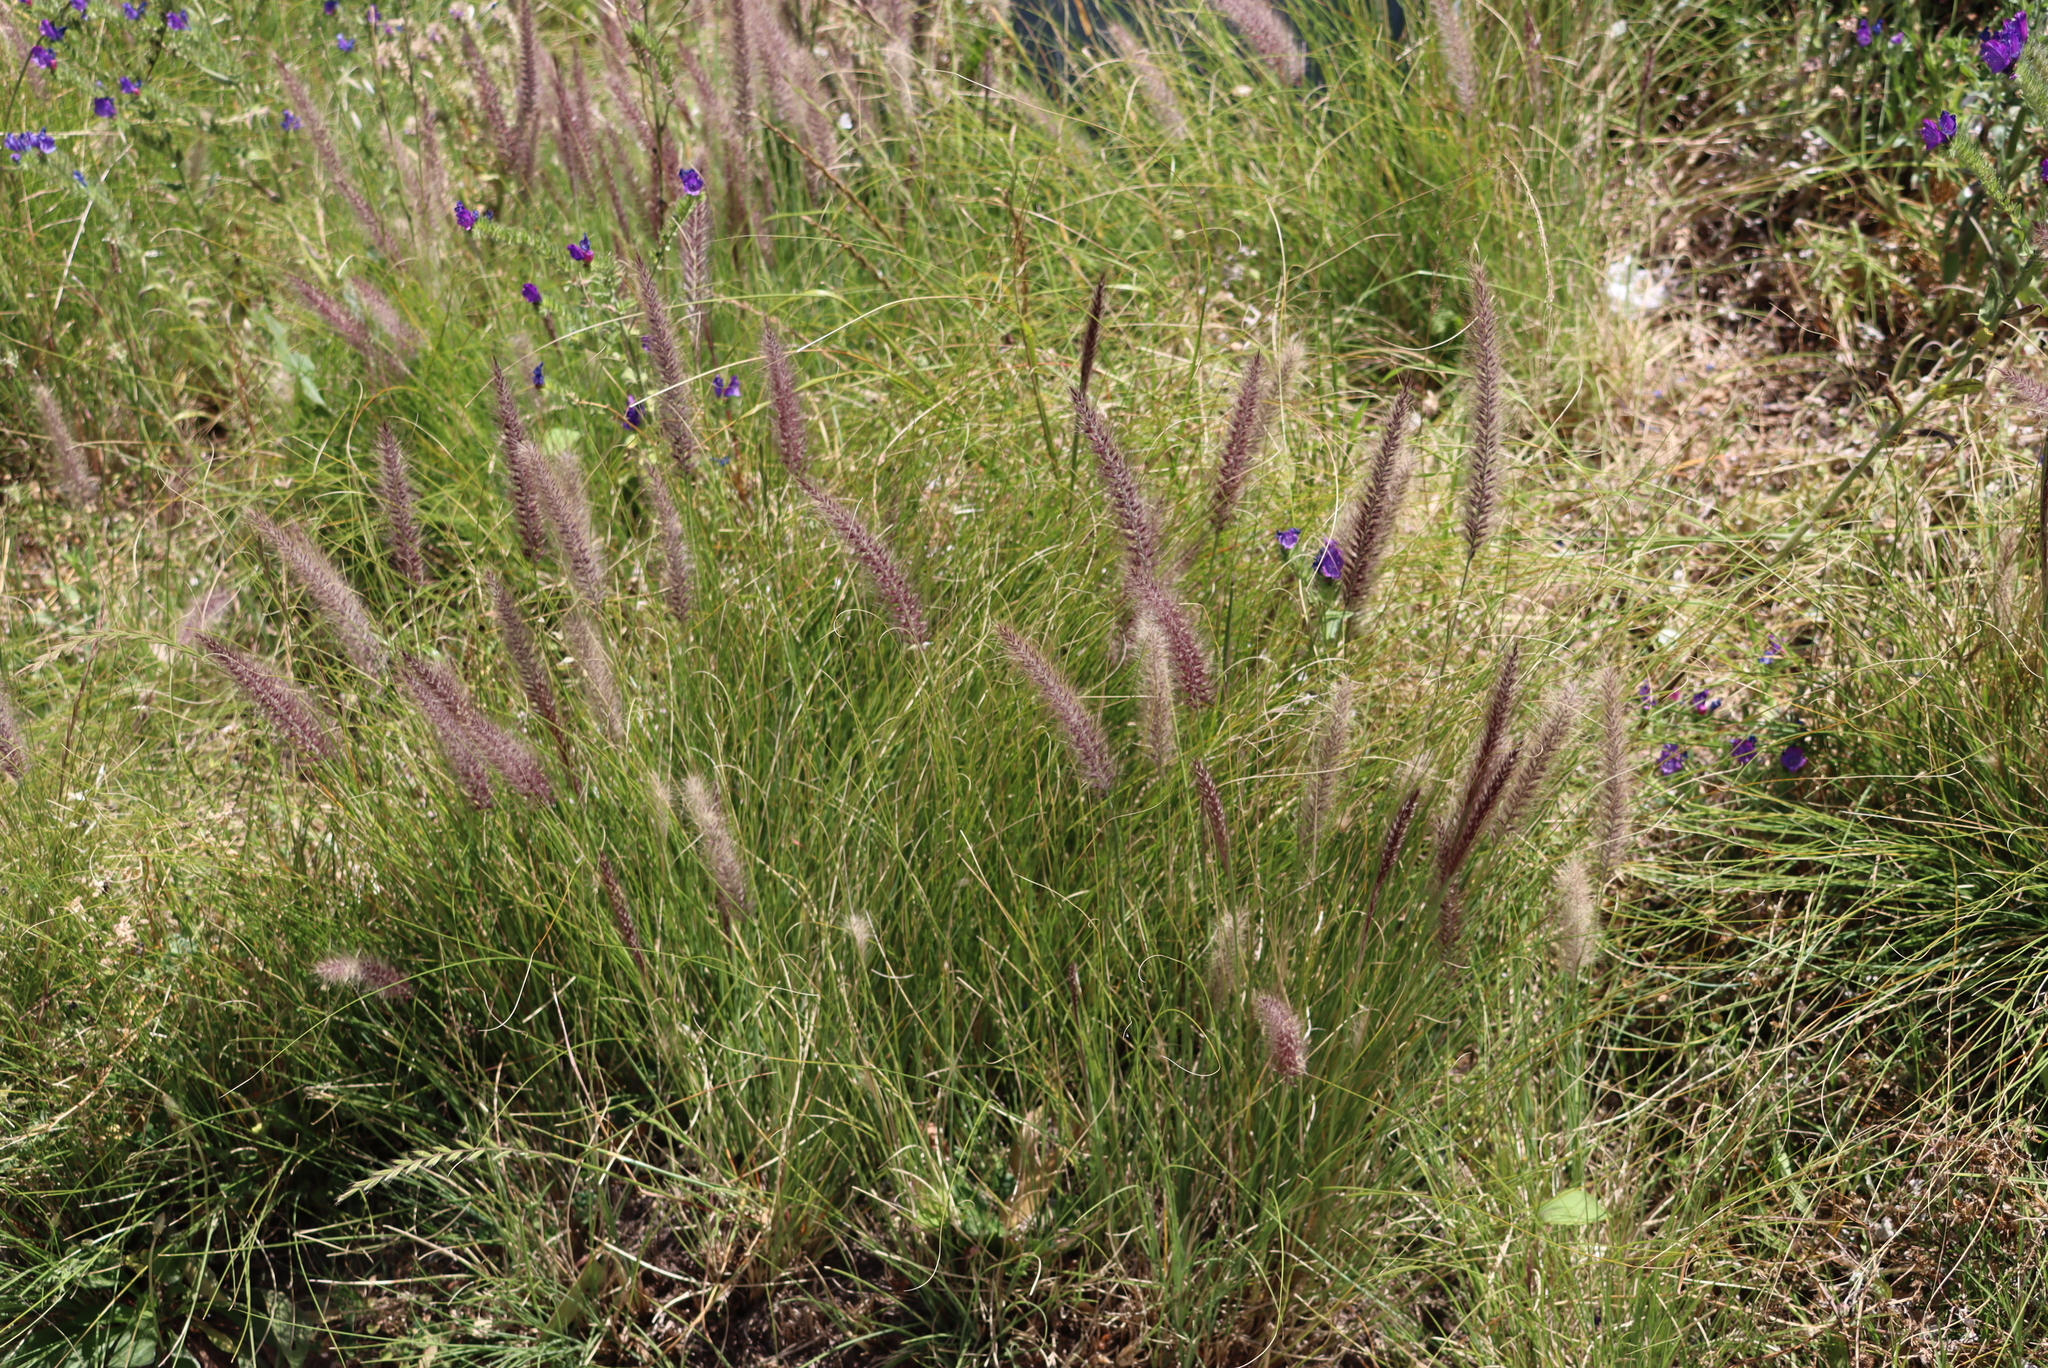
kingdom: Plantae
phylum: Tracheophyta
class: Liliopsida
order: Poales
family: Poaceae
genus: Cenchrus
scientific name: Cenchrus setaceus
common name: Crimson fountaingrass
